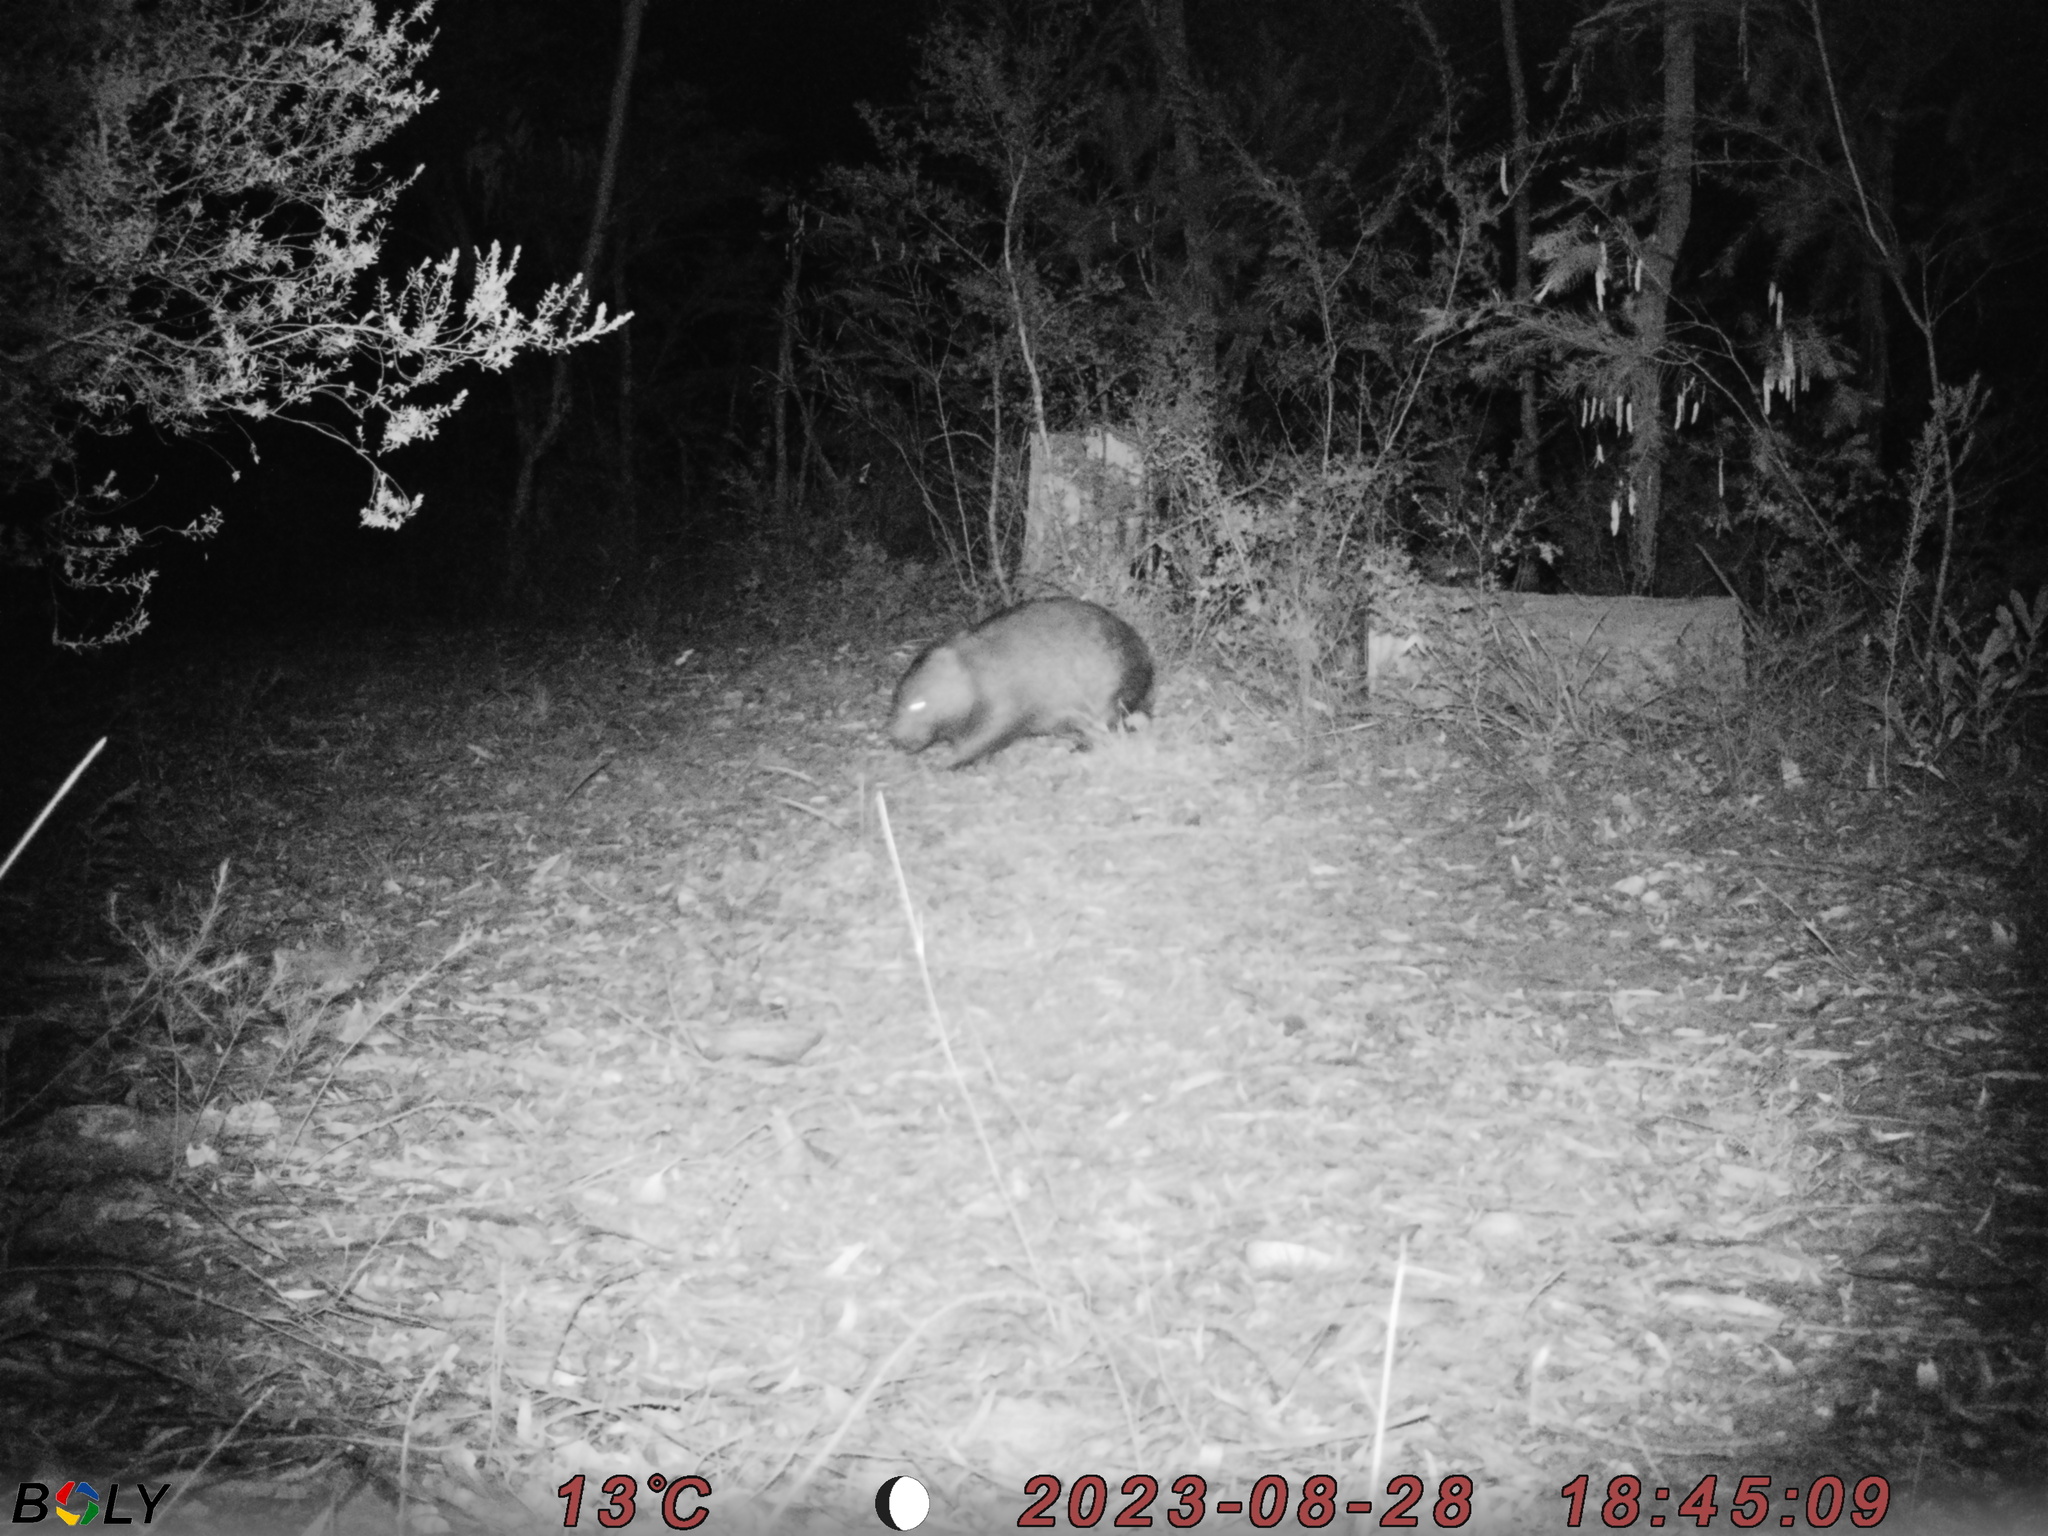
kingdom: Animalia
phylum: Chordata
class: Mammalia
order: Diprotodontia
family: Vombatidae
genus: Vombatus
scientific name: Vombatus ursinus
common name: Common wombat
